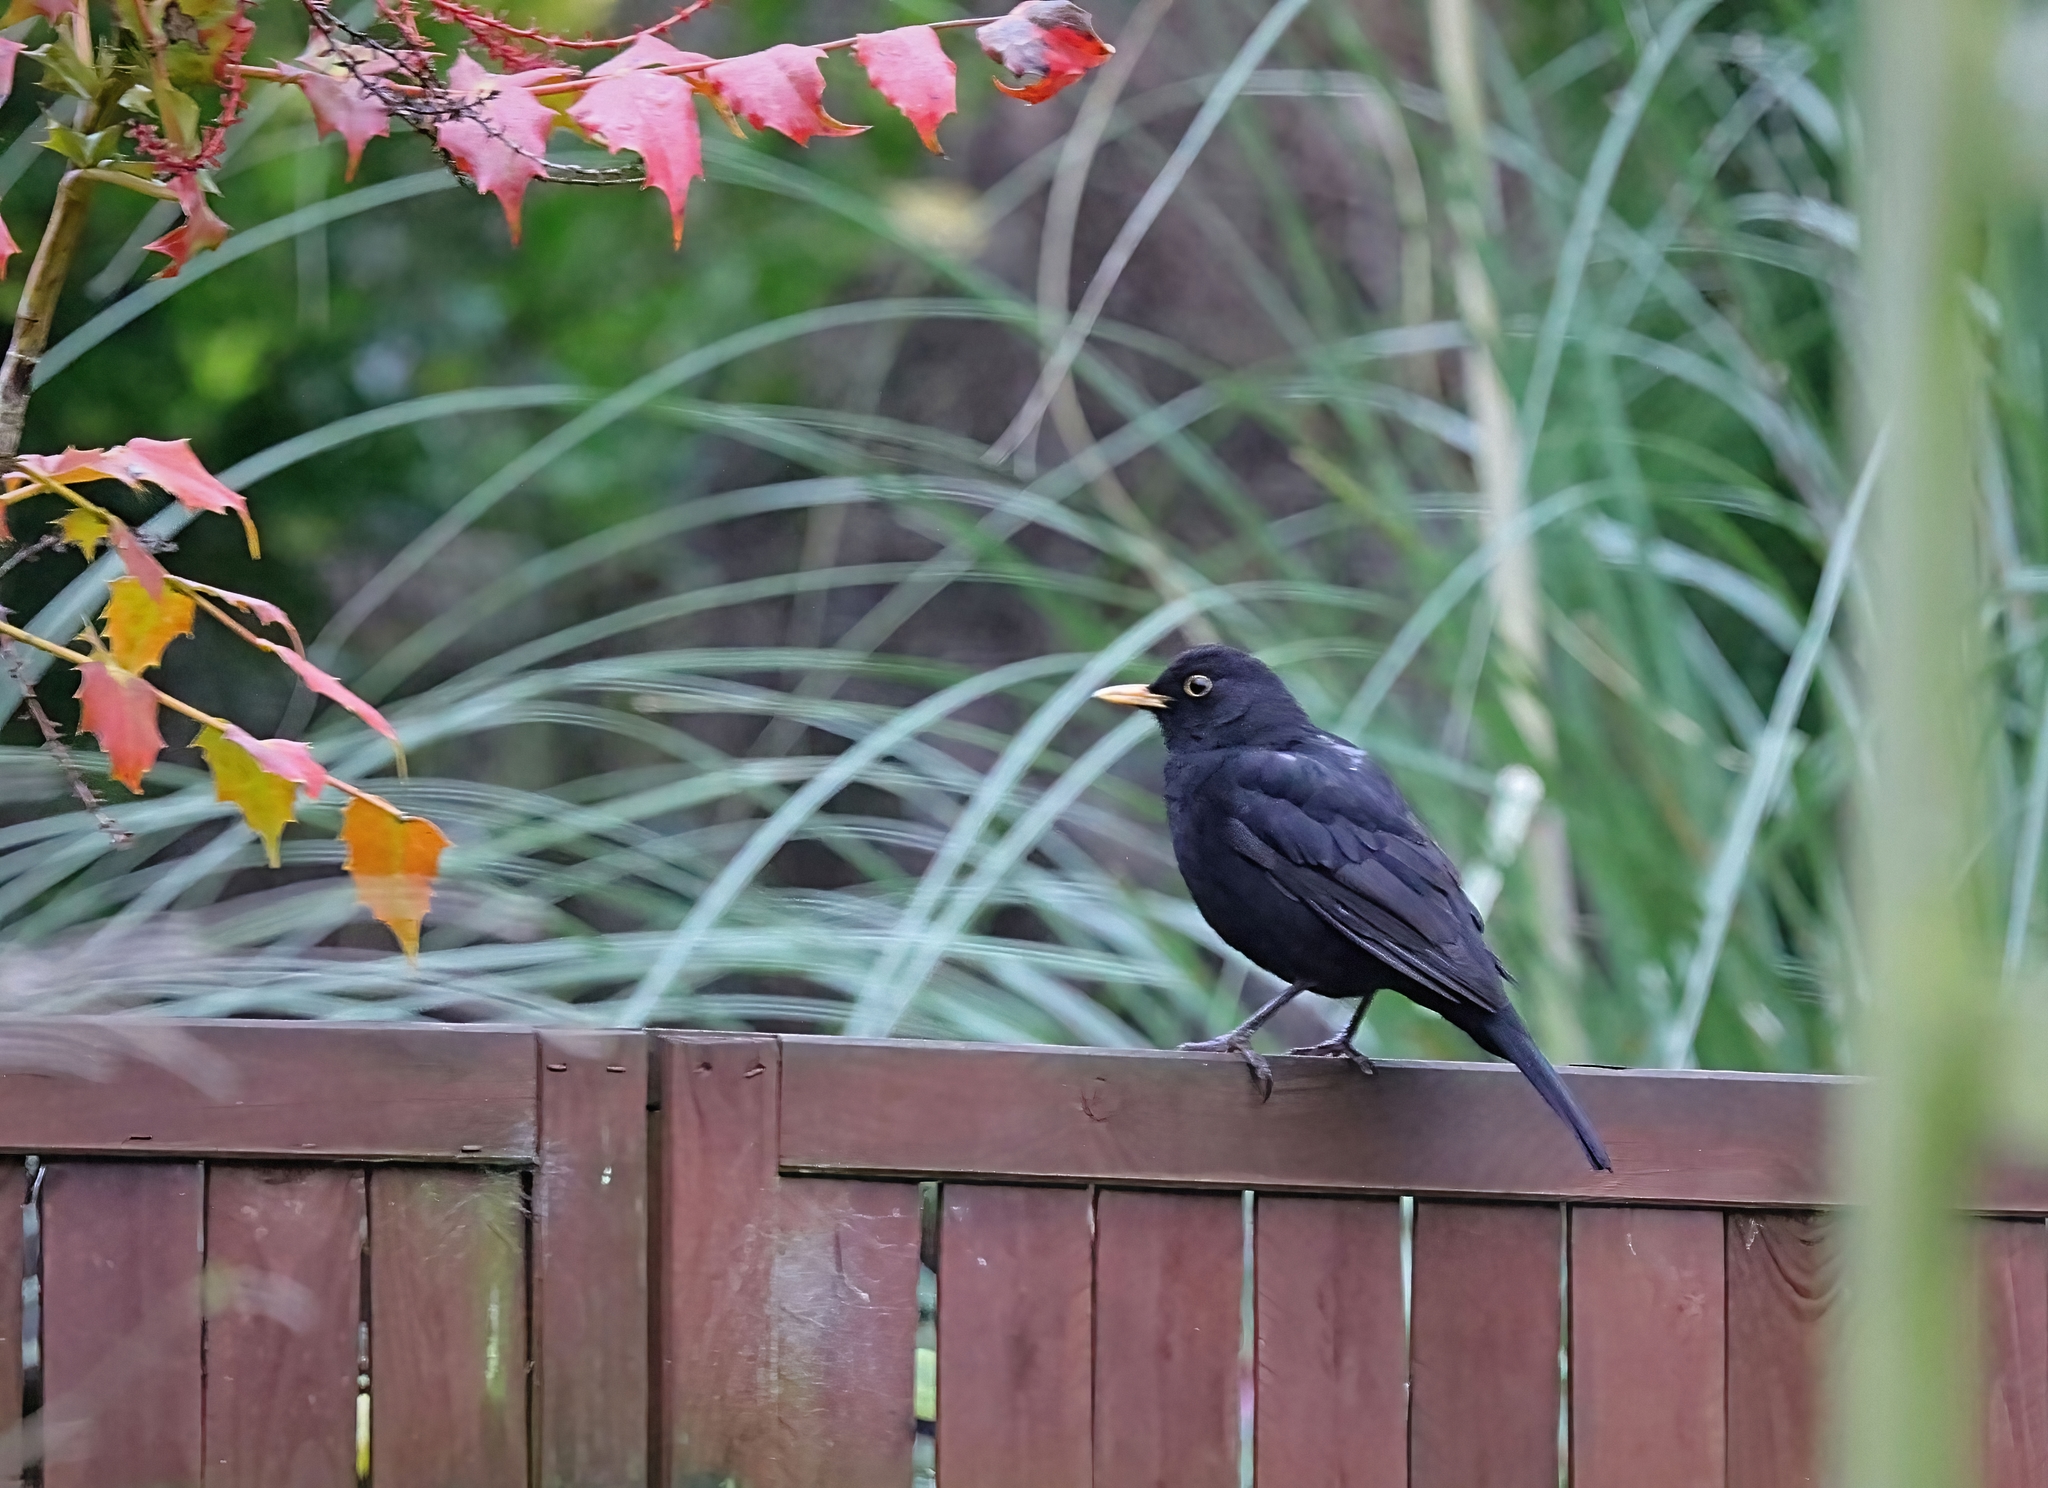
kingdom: Animalia
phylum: Chordata
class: Aves
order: Passeriformes
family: Turdidae
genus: Turdus
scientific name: Turdus merula
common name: Common blackbird
